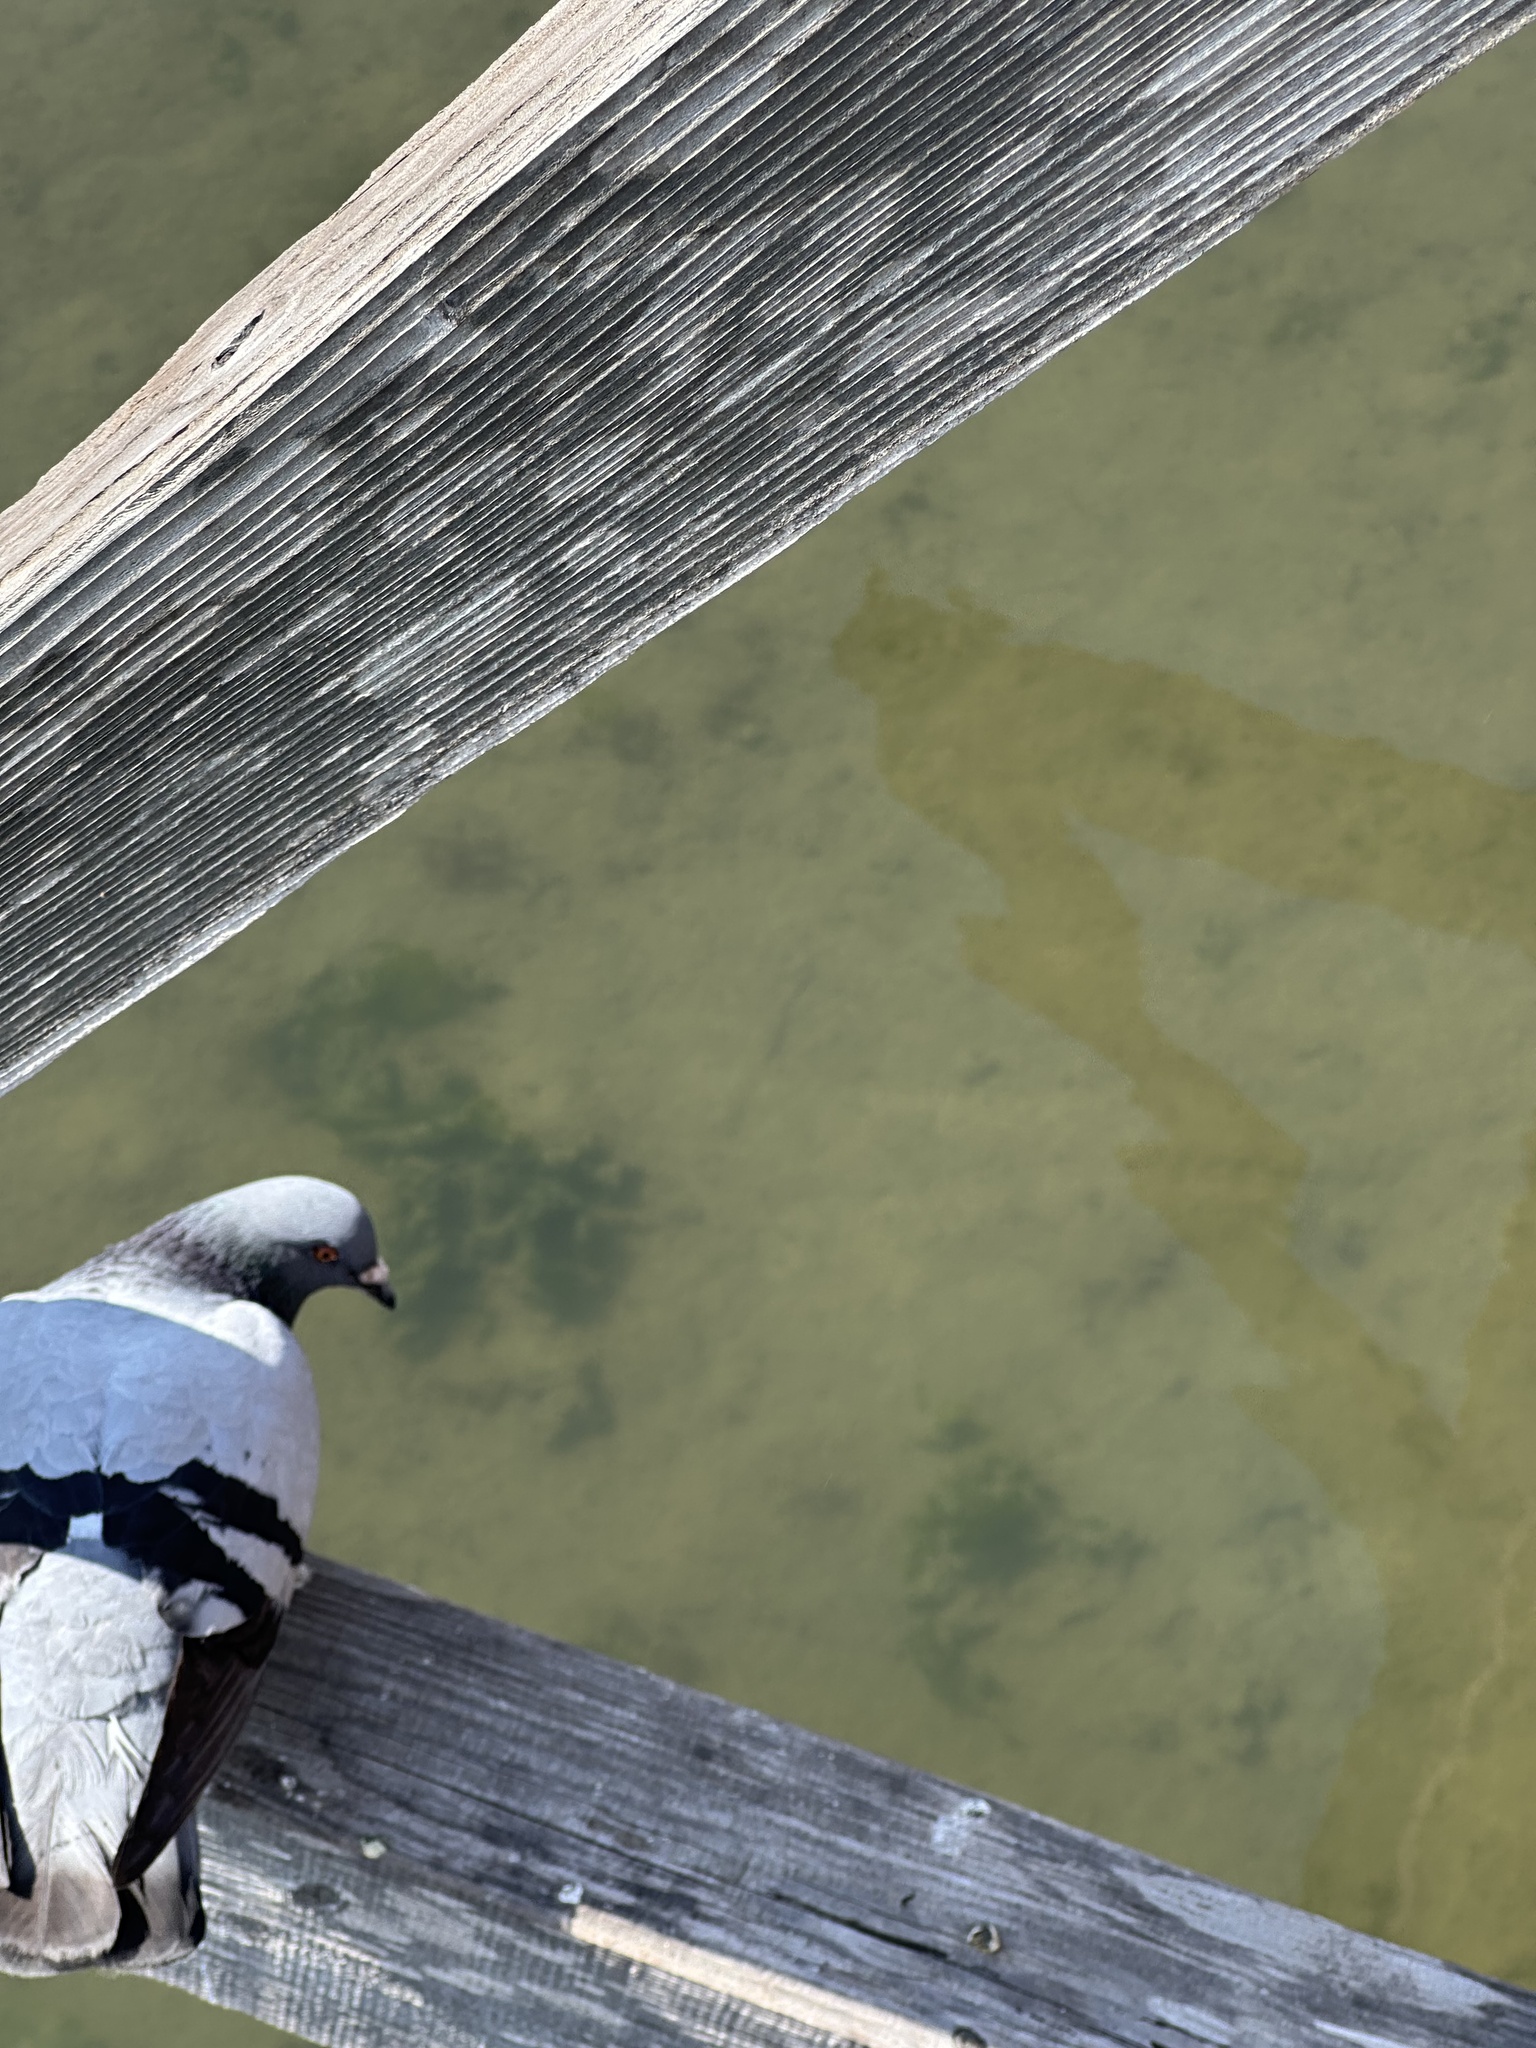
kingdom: Animalia
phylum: Chordata
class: Aves
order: Columbiformes
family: Columbidae
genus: Columba
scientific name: Columba livia
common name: Rock pigeon
